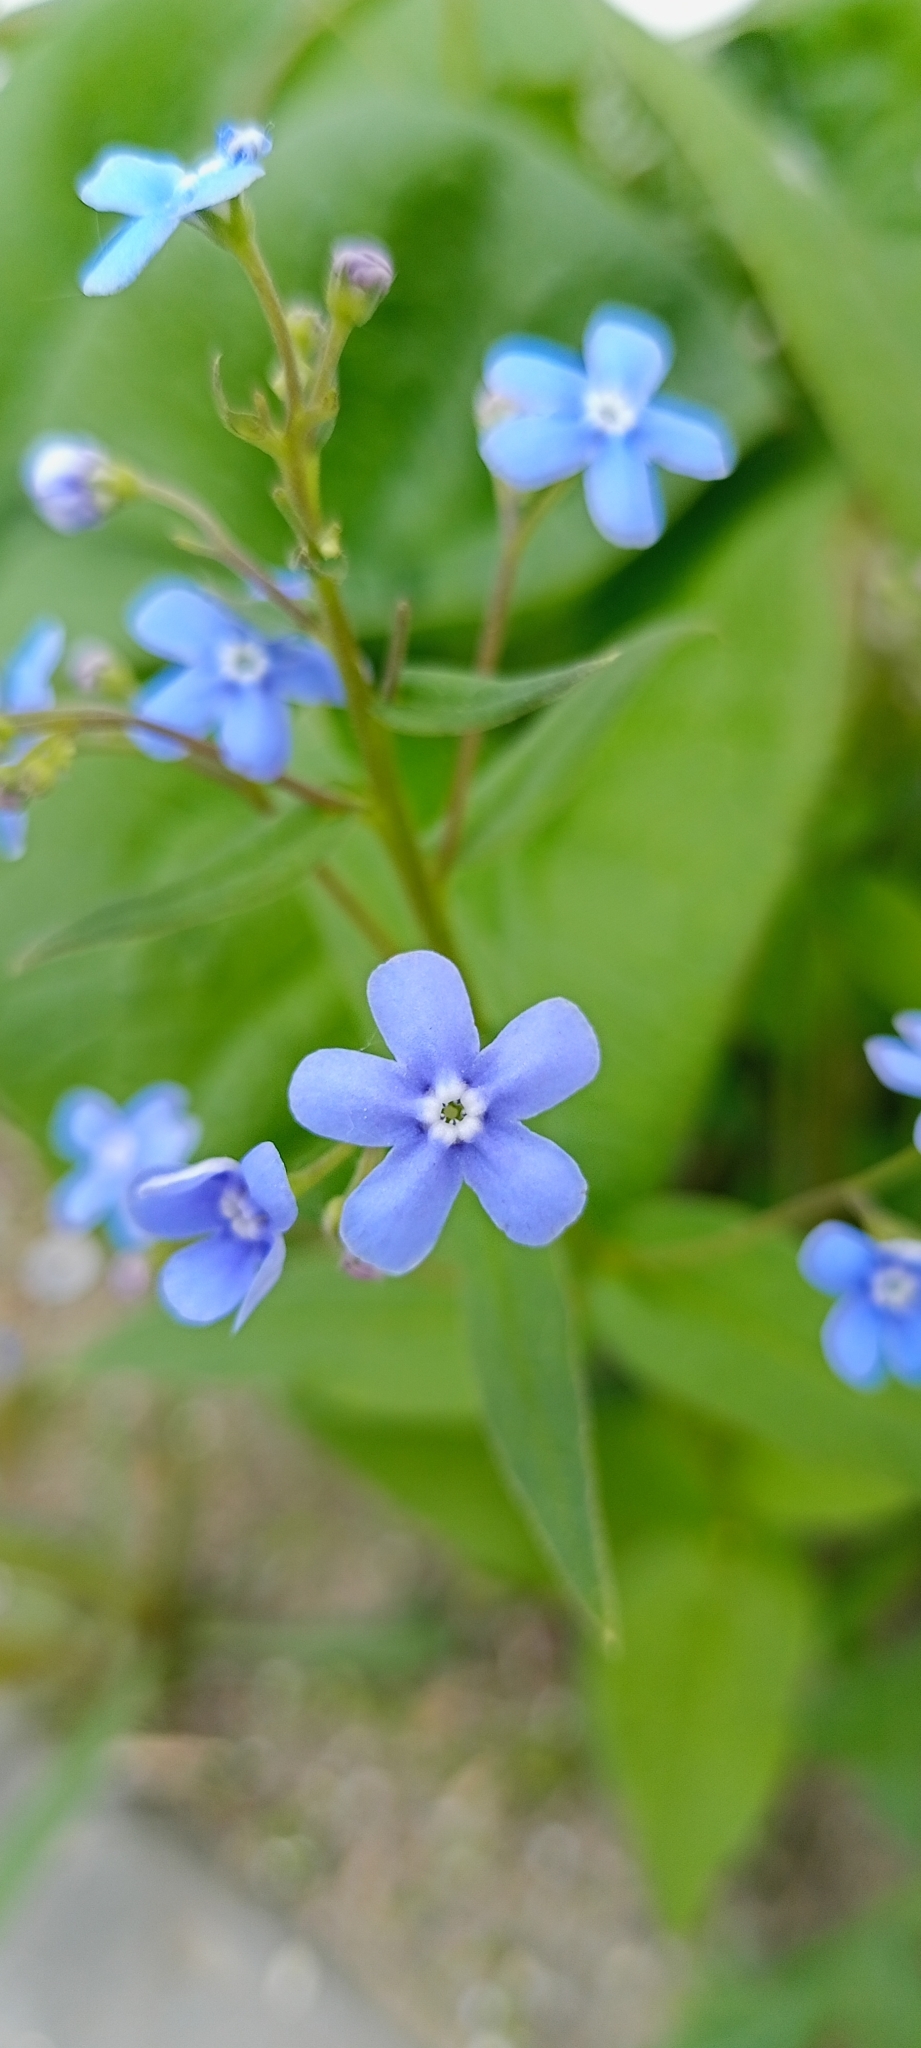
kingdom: Plantae
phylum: Tracheophyta
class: Magnoliopsida
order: Boraginales
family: Boraginaceae
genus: Brunnera
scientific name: Brunnera sibirica
